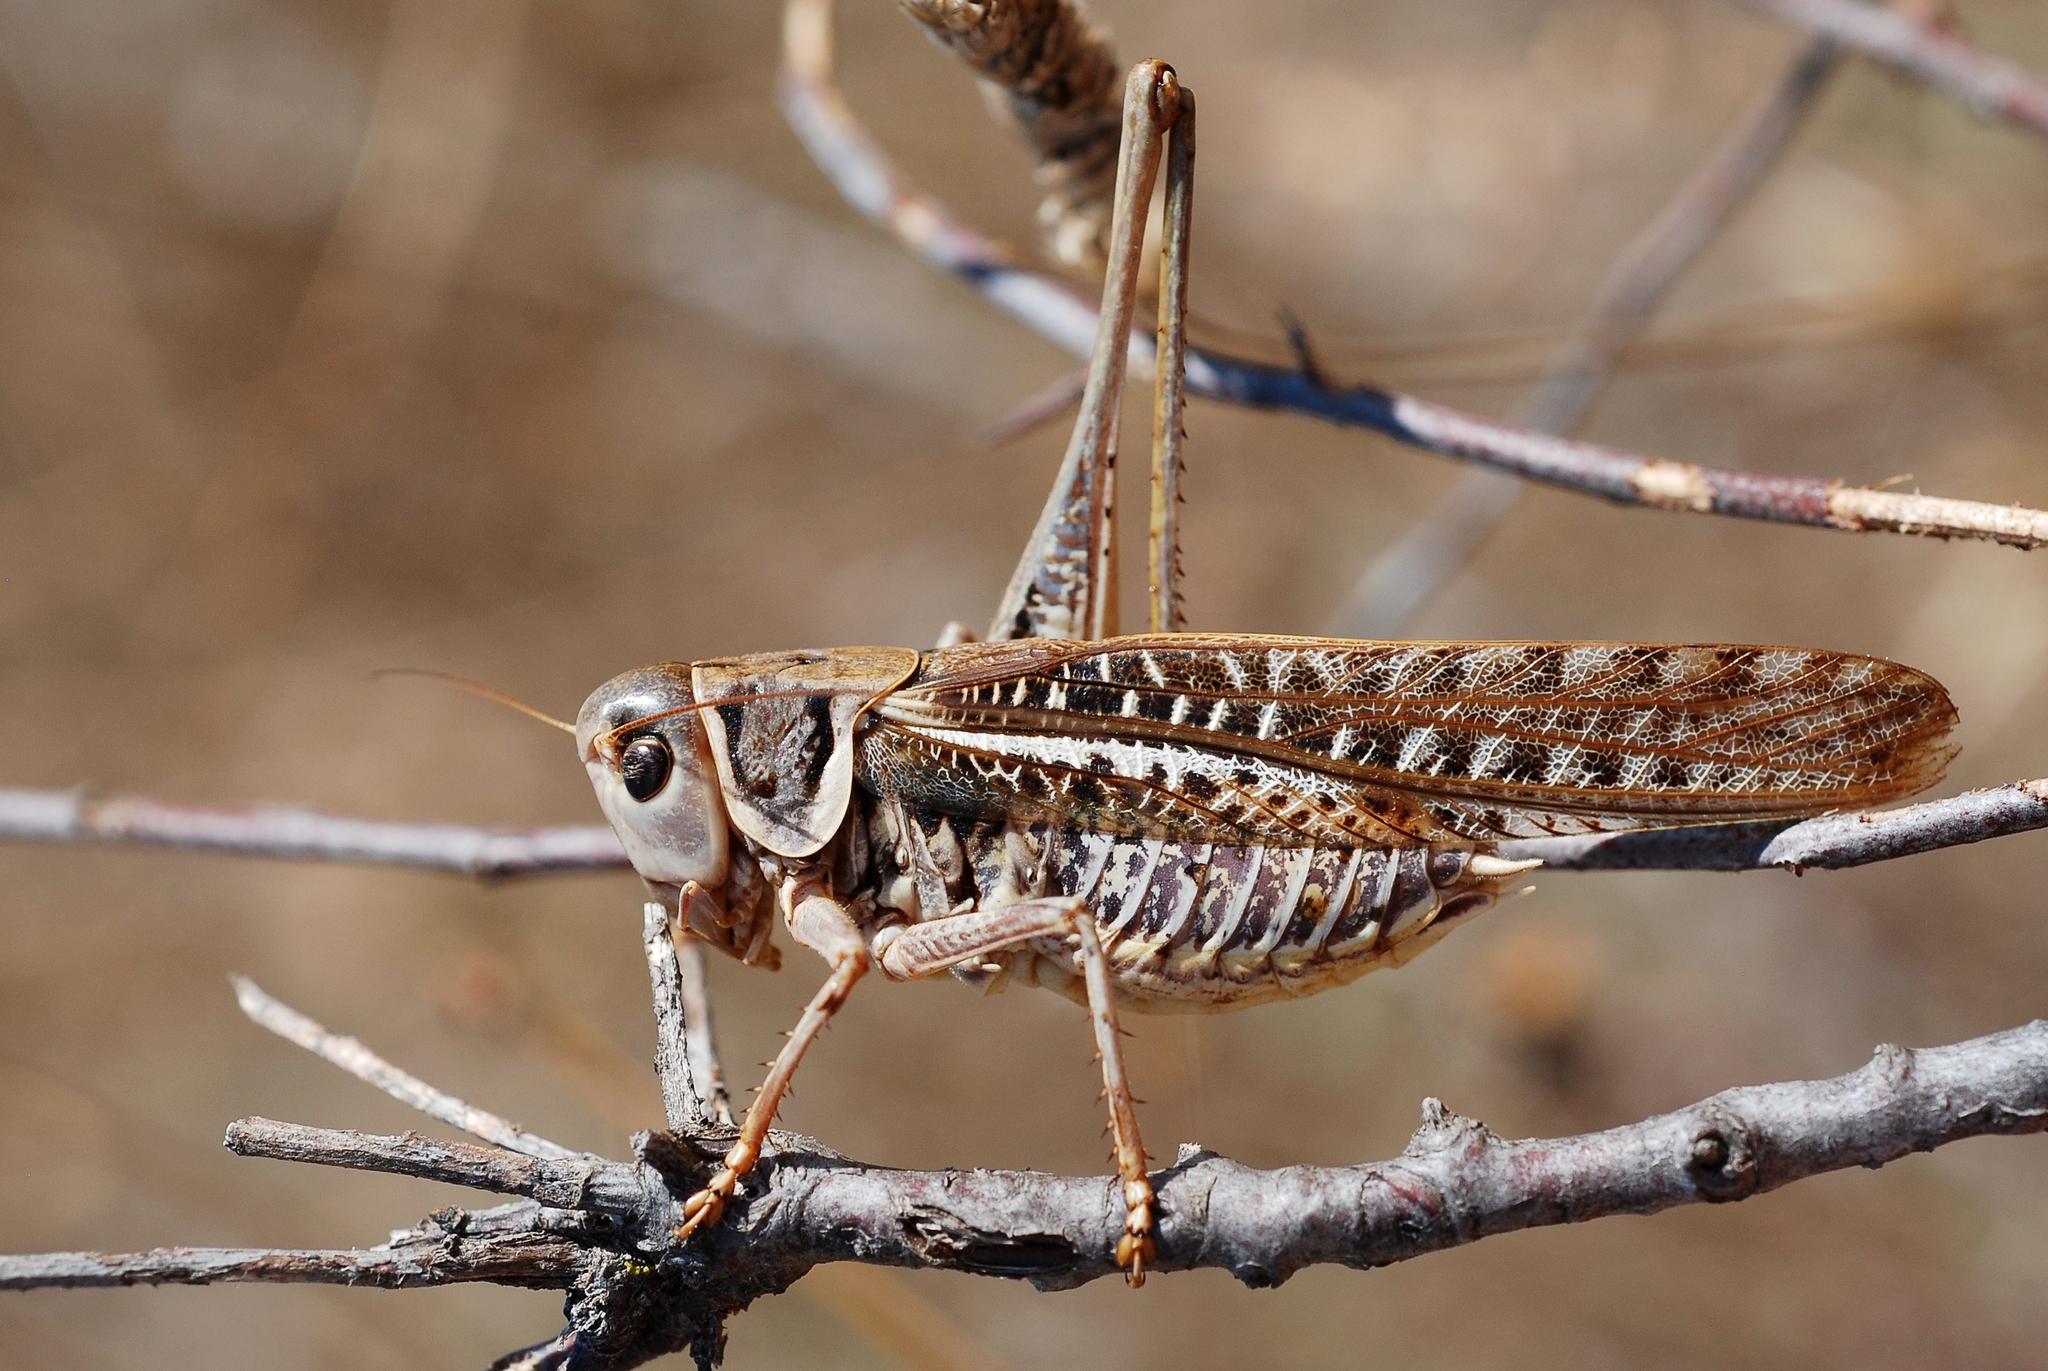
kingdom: Animalia
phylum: Arthropoda
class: Insecta
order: Orthoptera
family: Tettigoniidae
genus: Decticus
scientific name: Decticus albifrons
